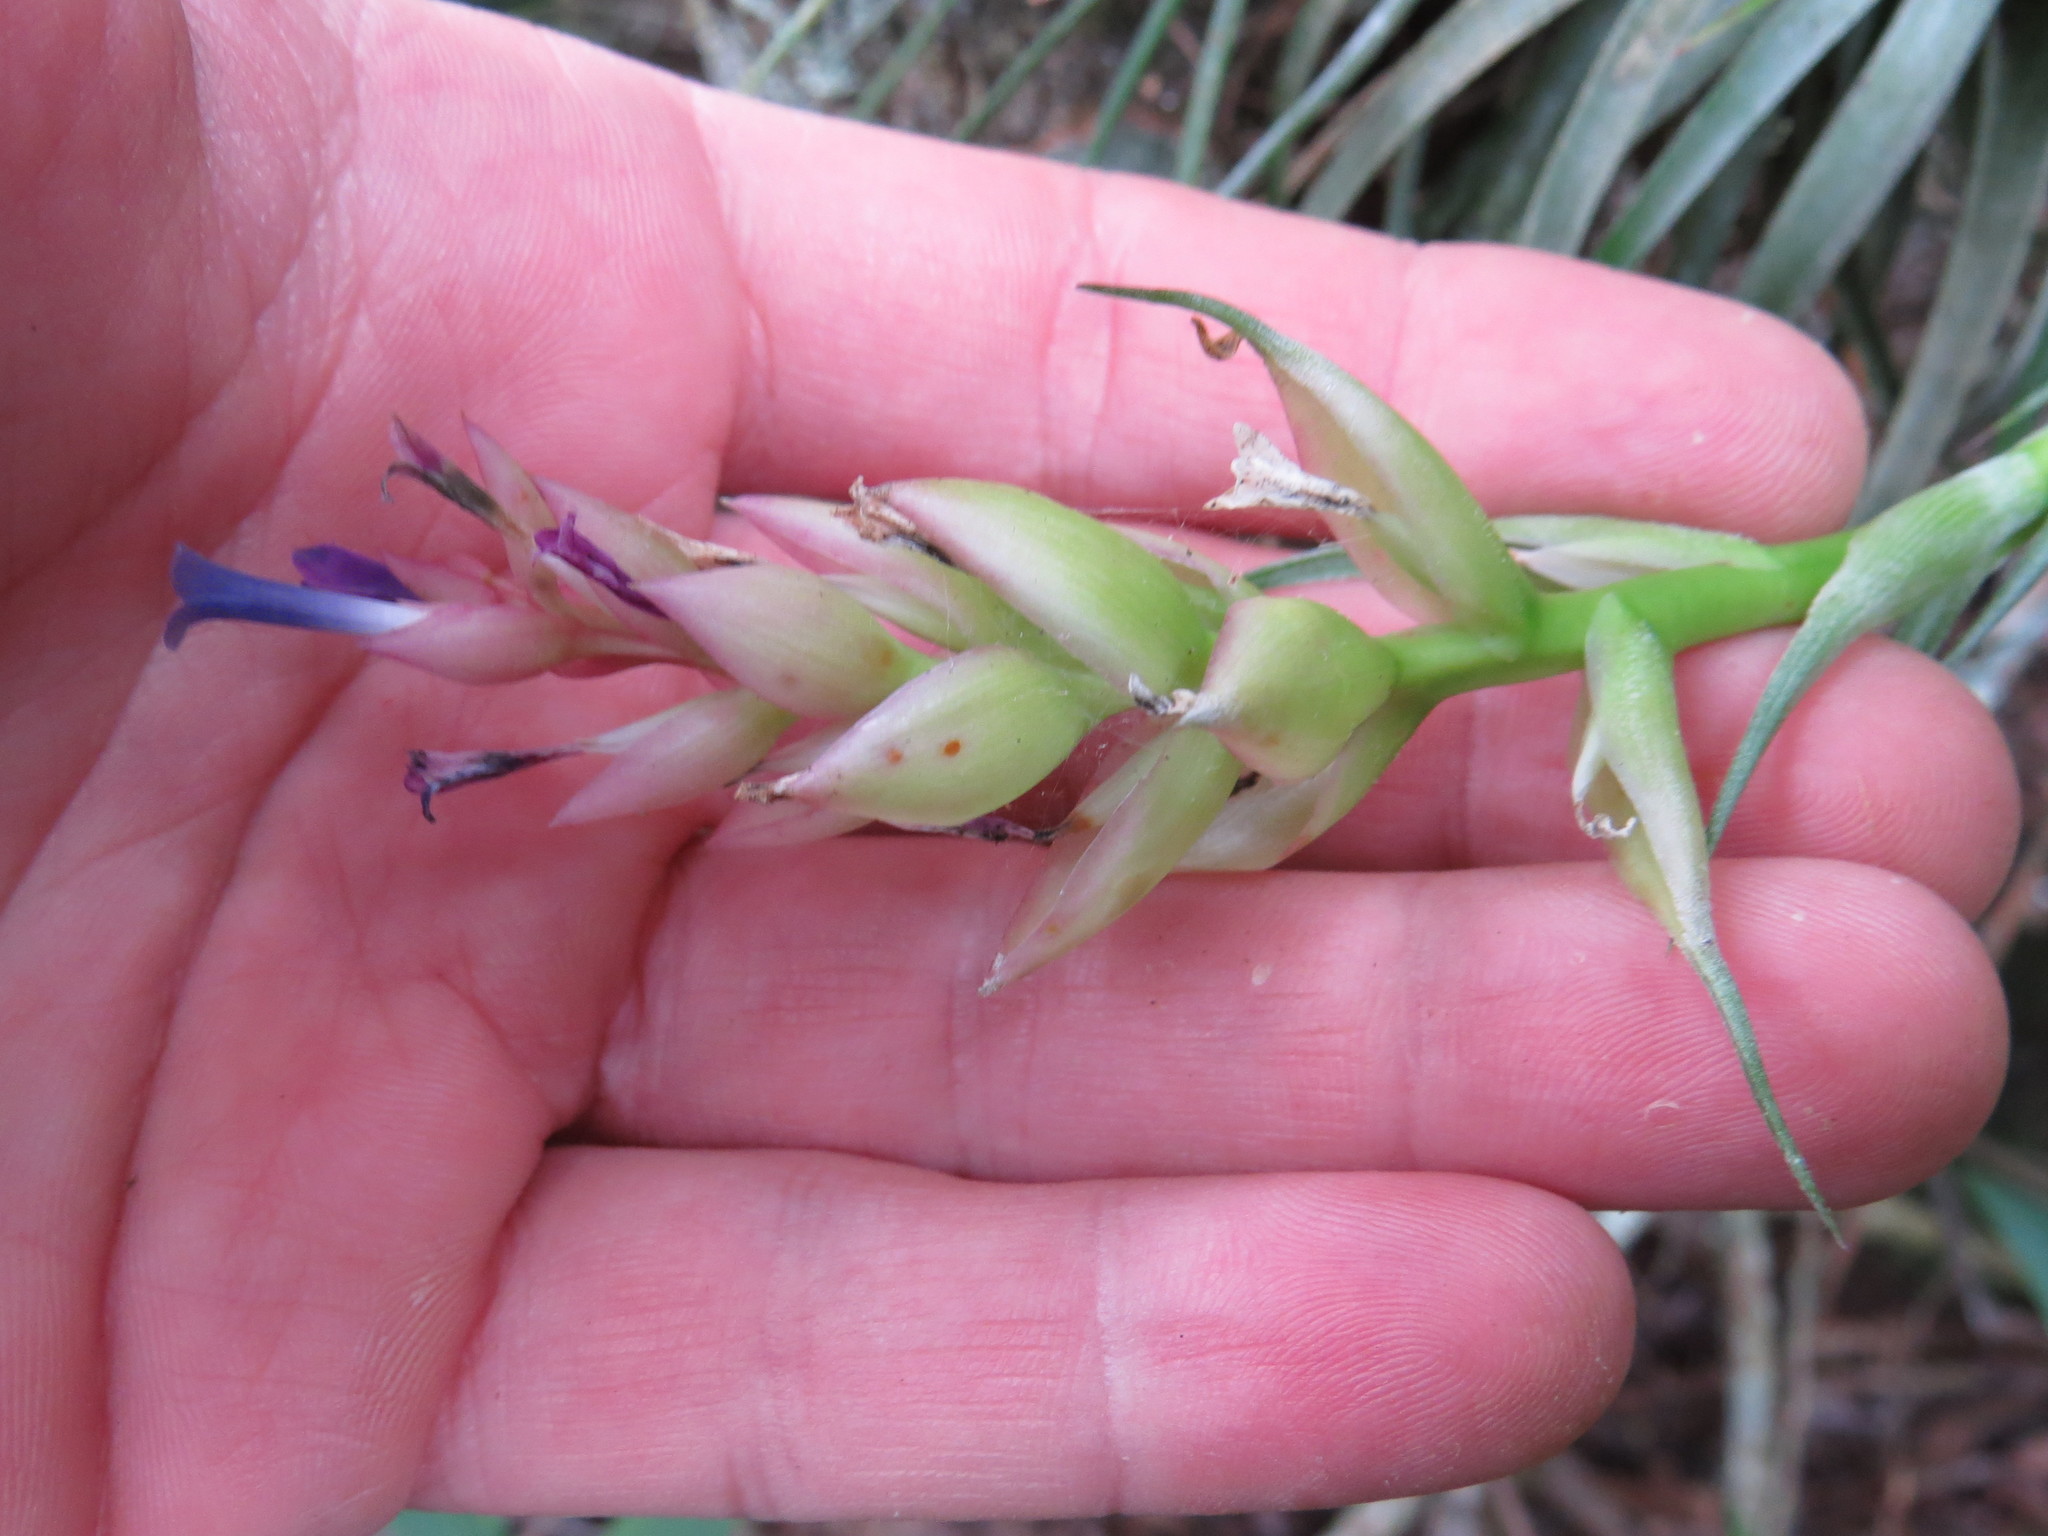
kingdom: Plantae
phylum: Tracheophyta
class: Liliopsida
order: Poales
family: Bromeliaceae
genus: Tillandsia
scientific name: Tillandsia stricta
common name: Airplant
